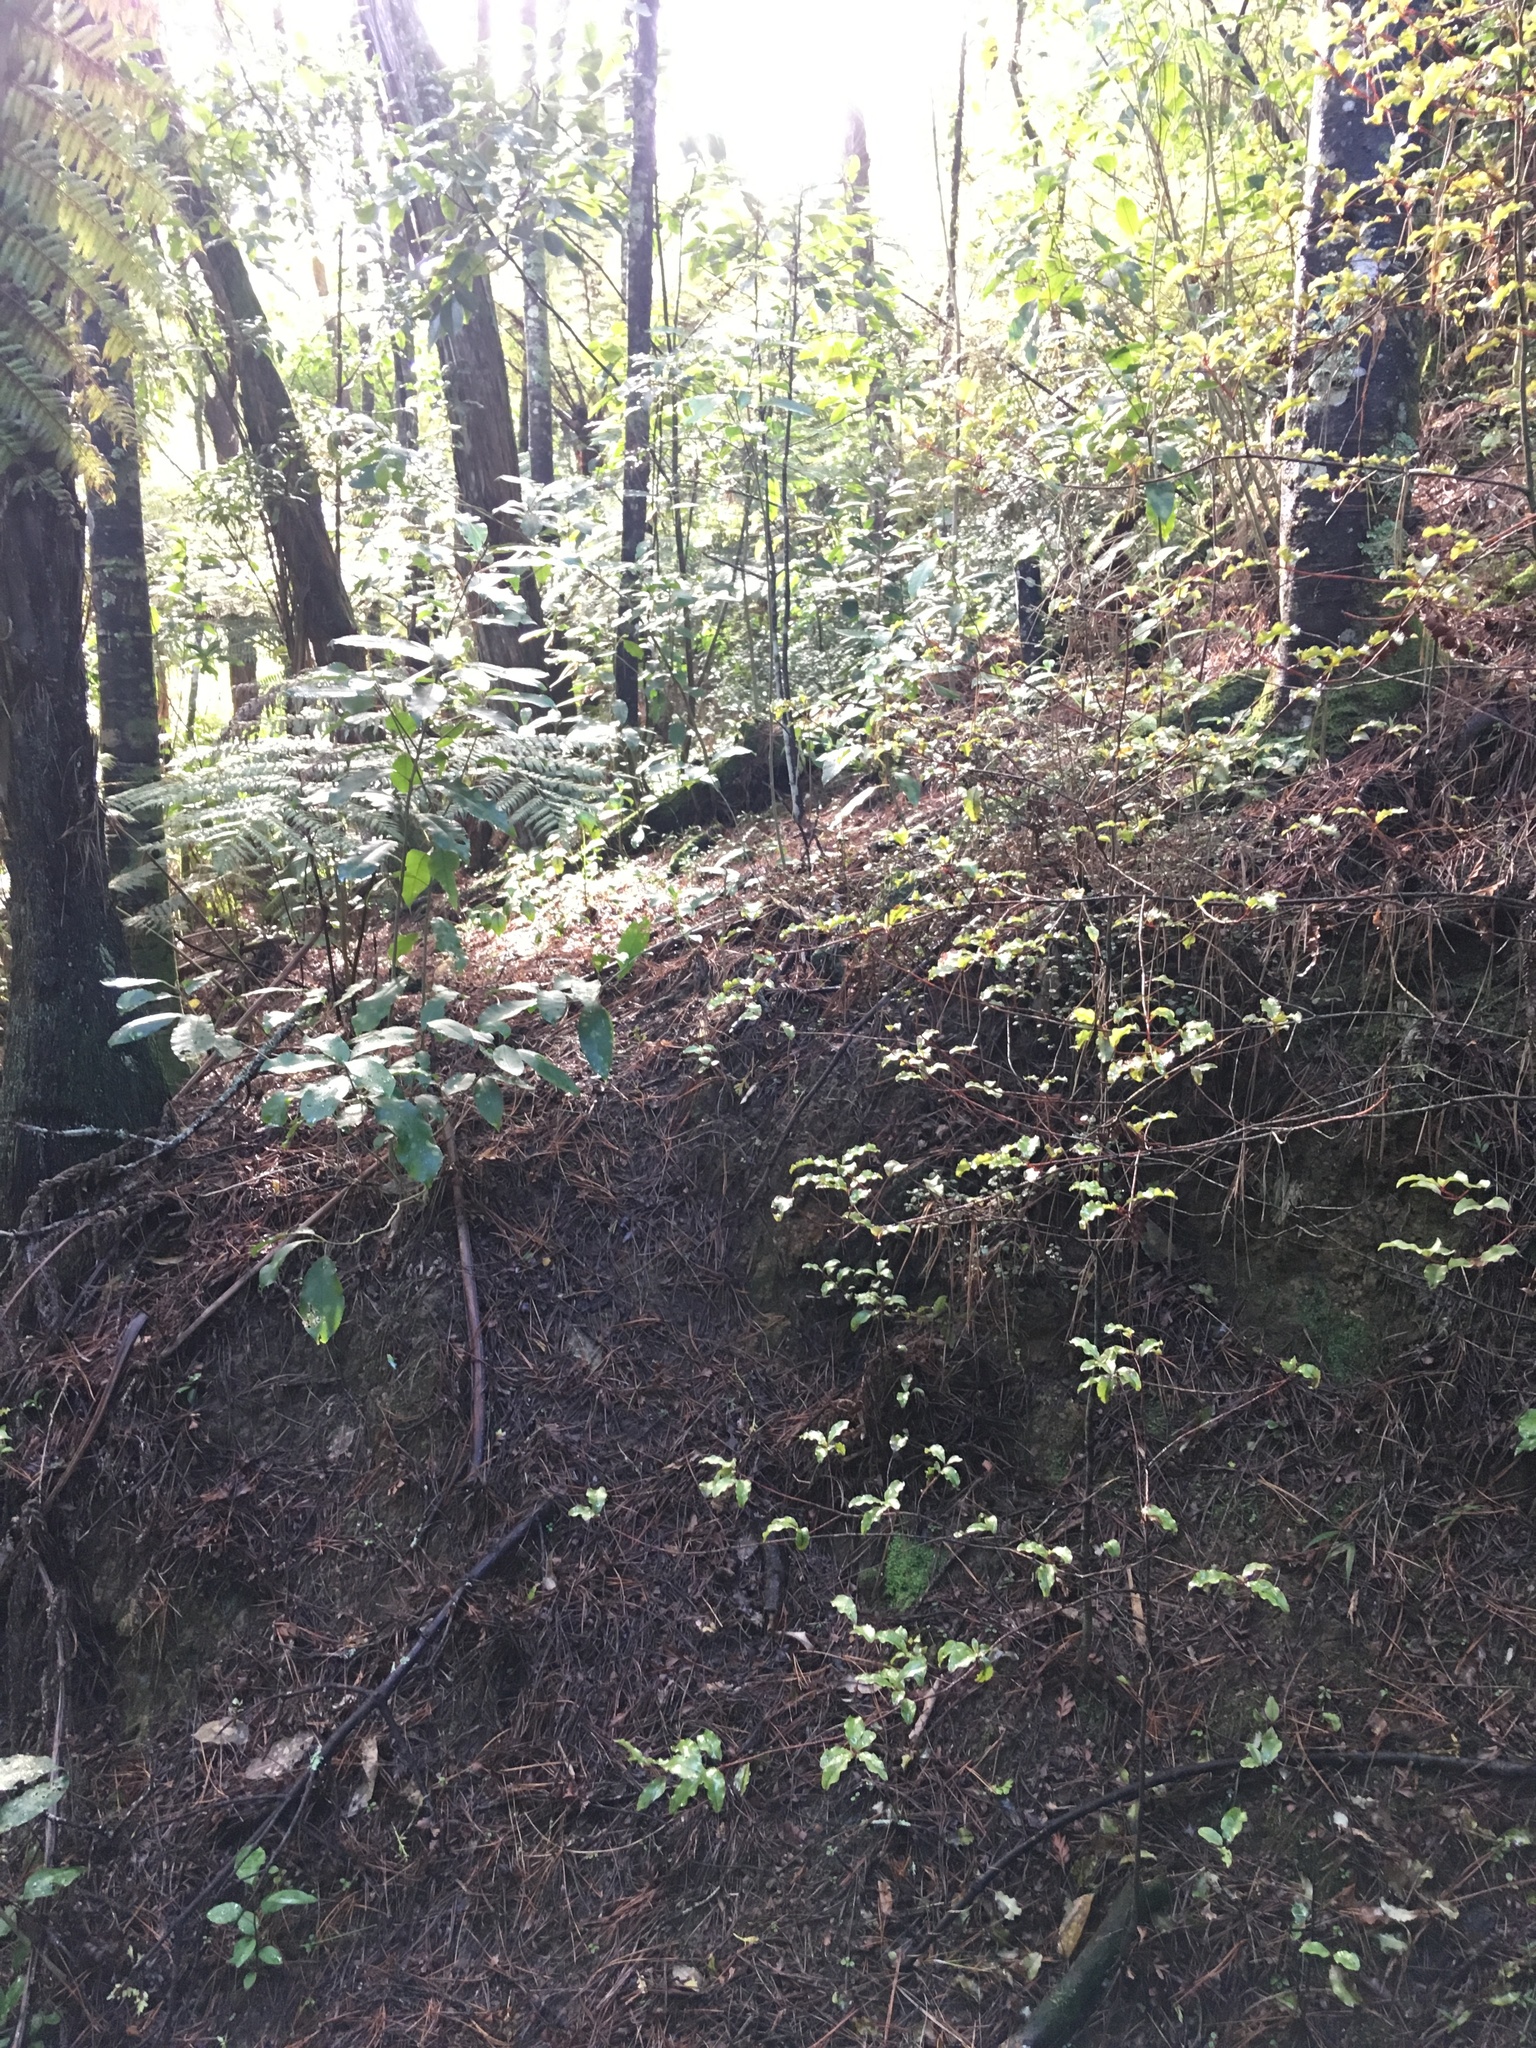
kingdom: Plantae
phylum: Tracheophyta
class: Magnoliopsida
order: Ericales
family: Primulaceae
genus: Myrsine
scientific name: Myrsine australis
